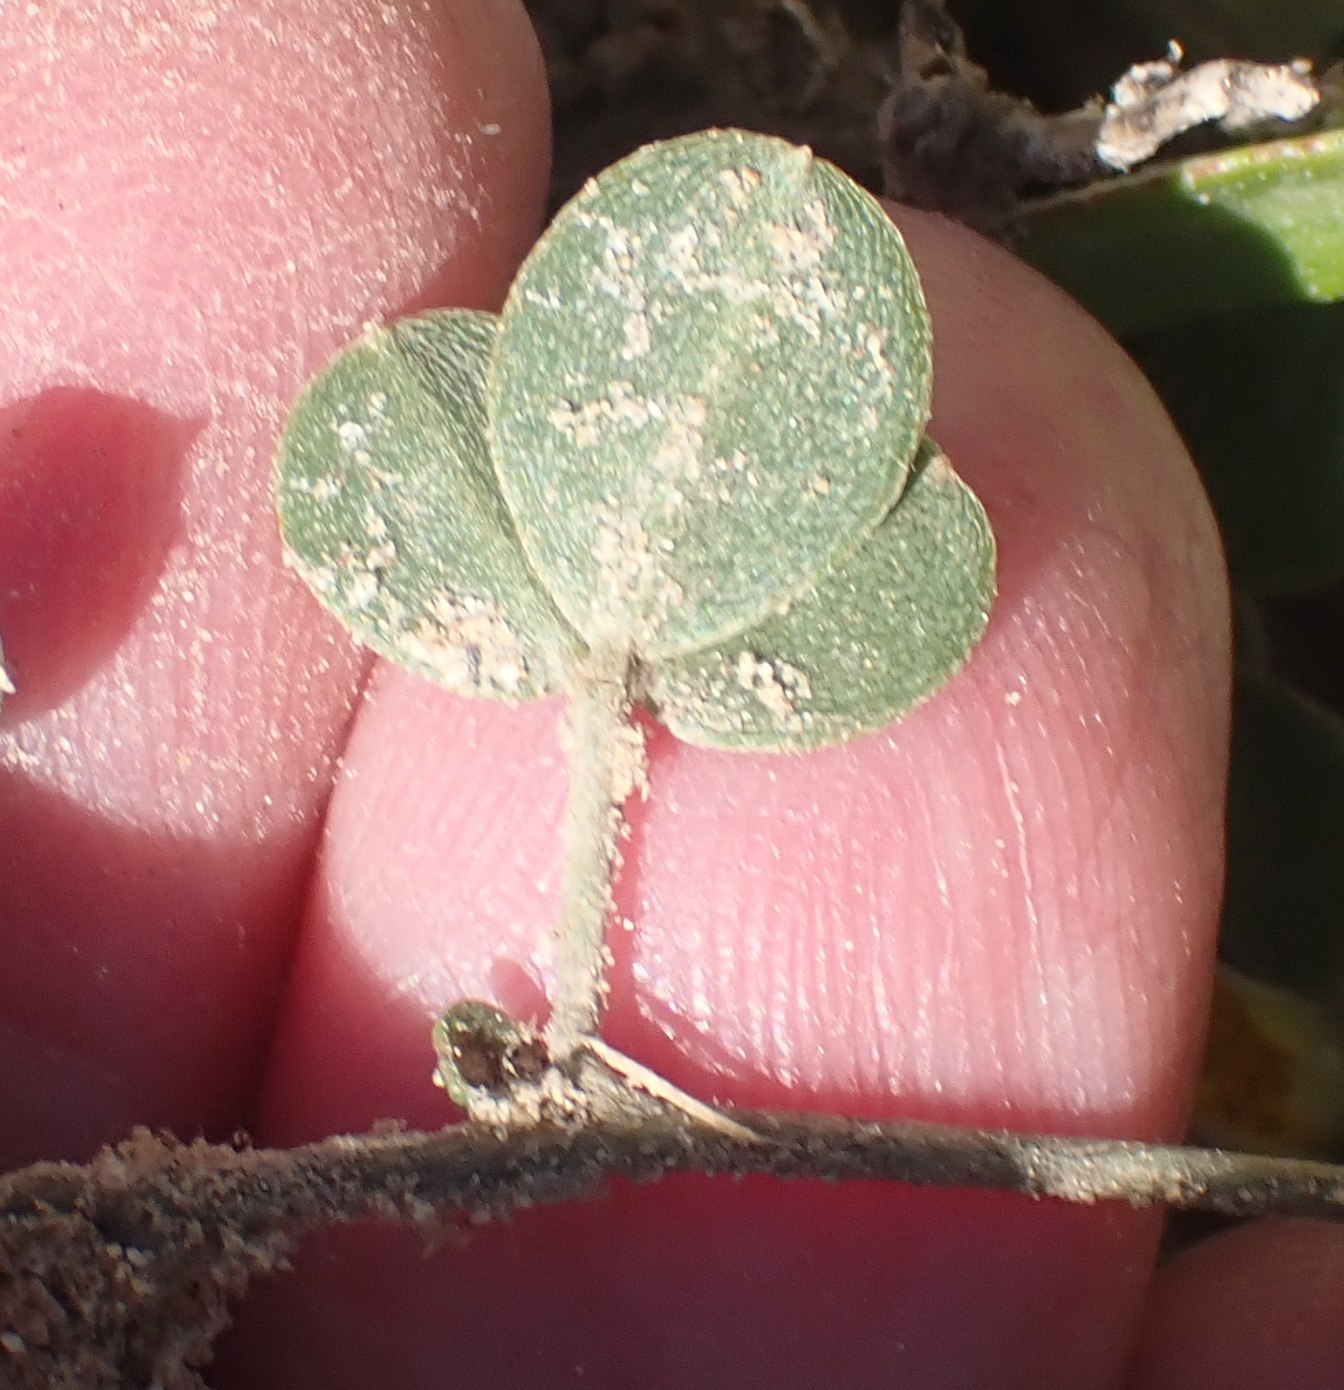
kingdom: Plantae
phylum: Tracheophyta
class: Magnoliopsida
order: Fabales
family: Fabaceae
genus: Lotononis
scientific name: Lotononis glabra
